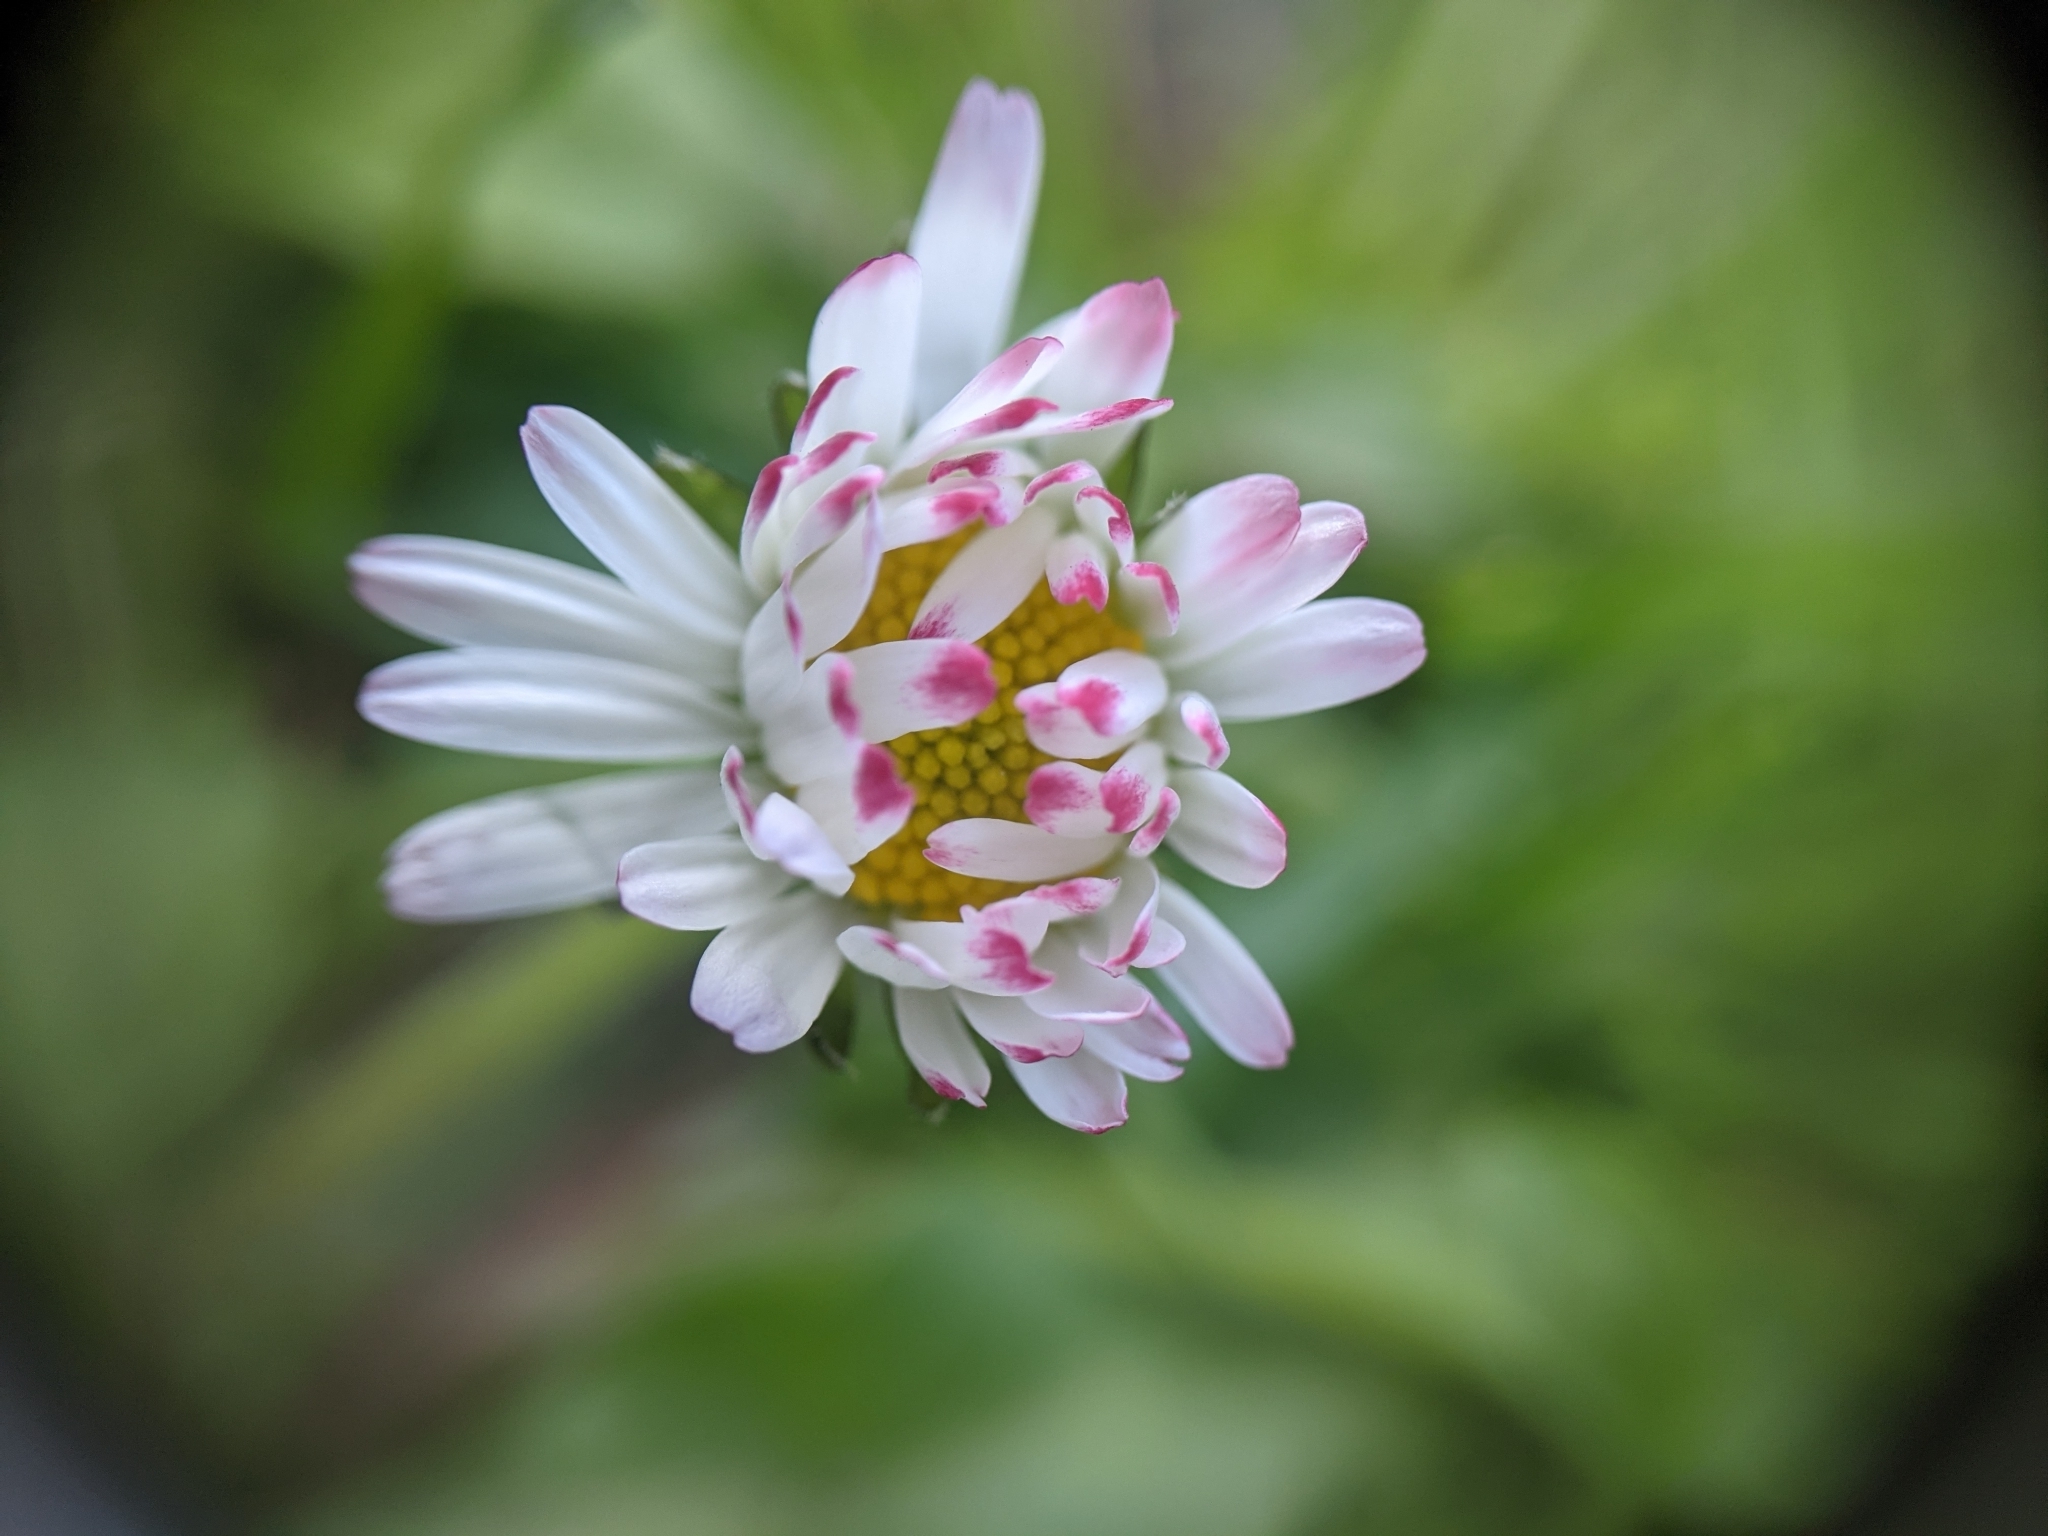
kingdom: Plantae
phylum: Tracheophyta
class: Magnoliopsida
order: Asterales
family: Asteraceae
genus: Bellis
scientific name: Bellis perennis
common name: Lawndaisy
